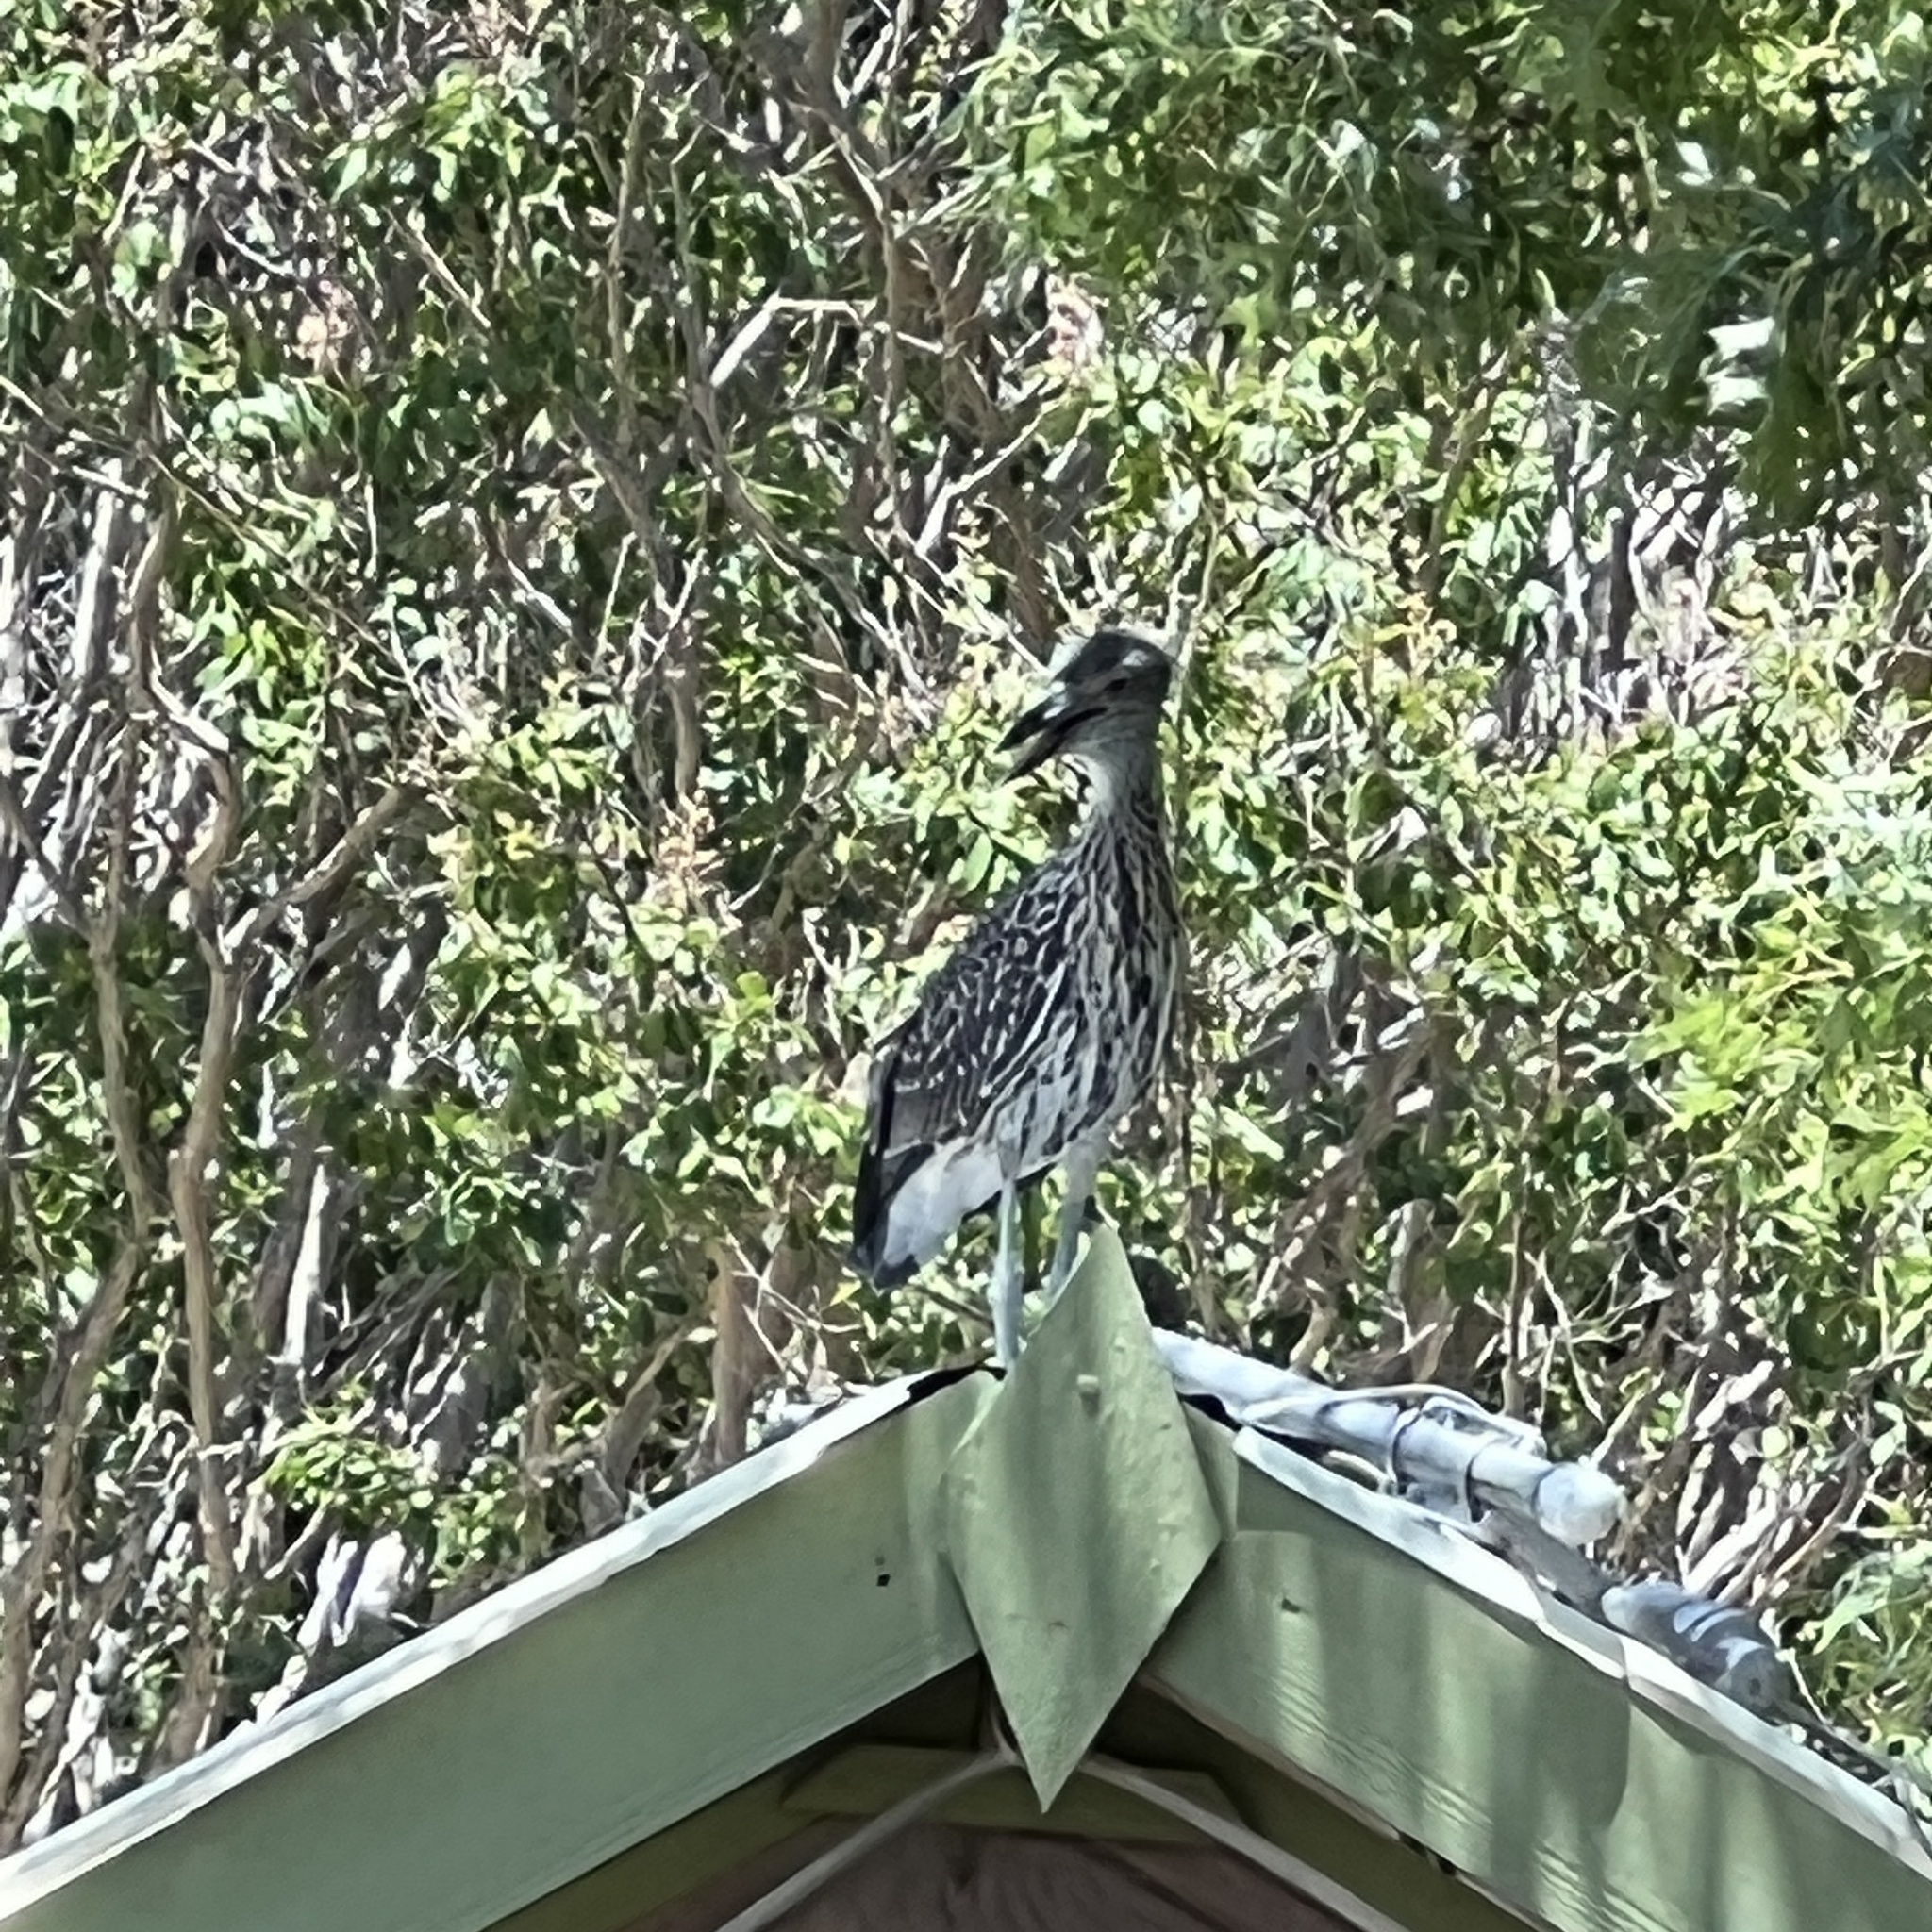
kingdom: Animalia
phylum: Chordata
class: Aves
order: Pelecaniformes
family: Ardeidae
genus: Nyctanassa
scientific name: Nyctanassa violacea
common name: Yellow-crowned night heron
